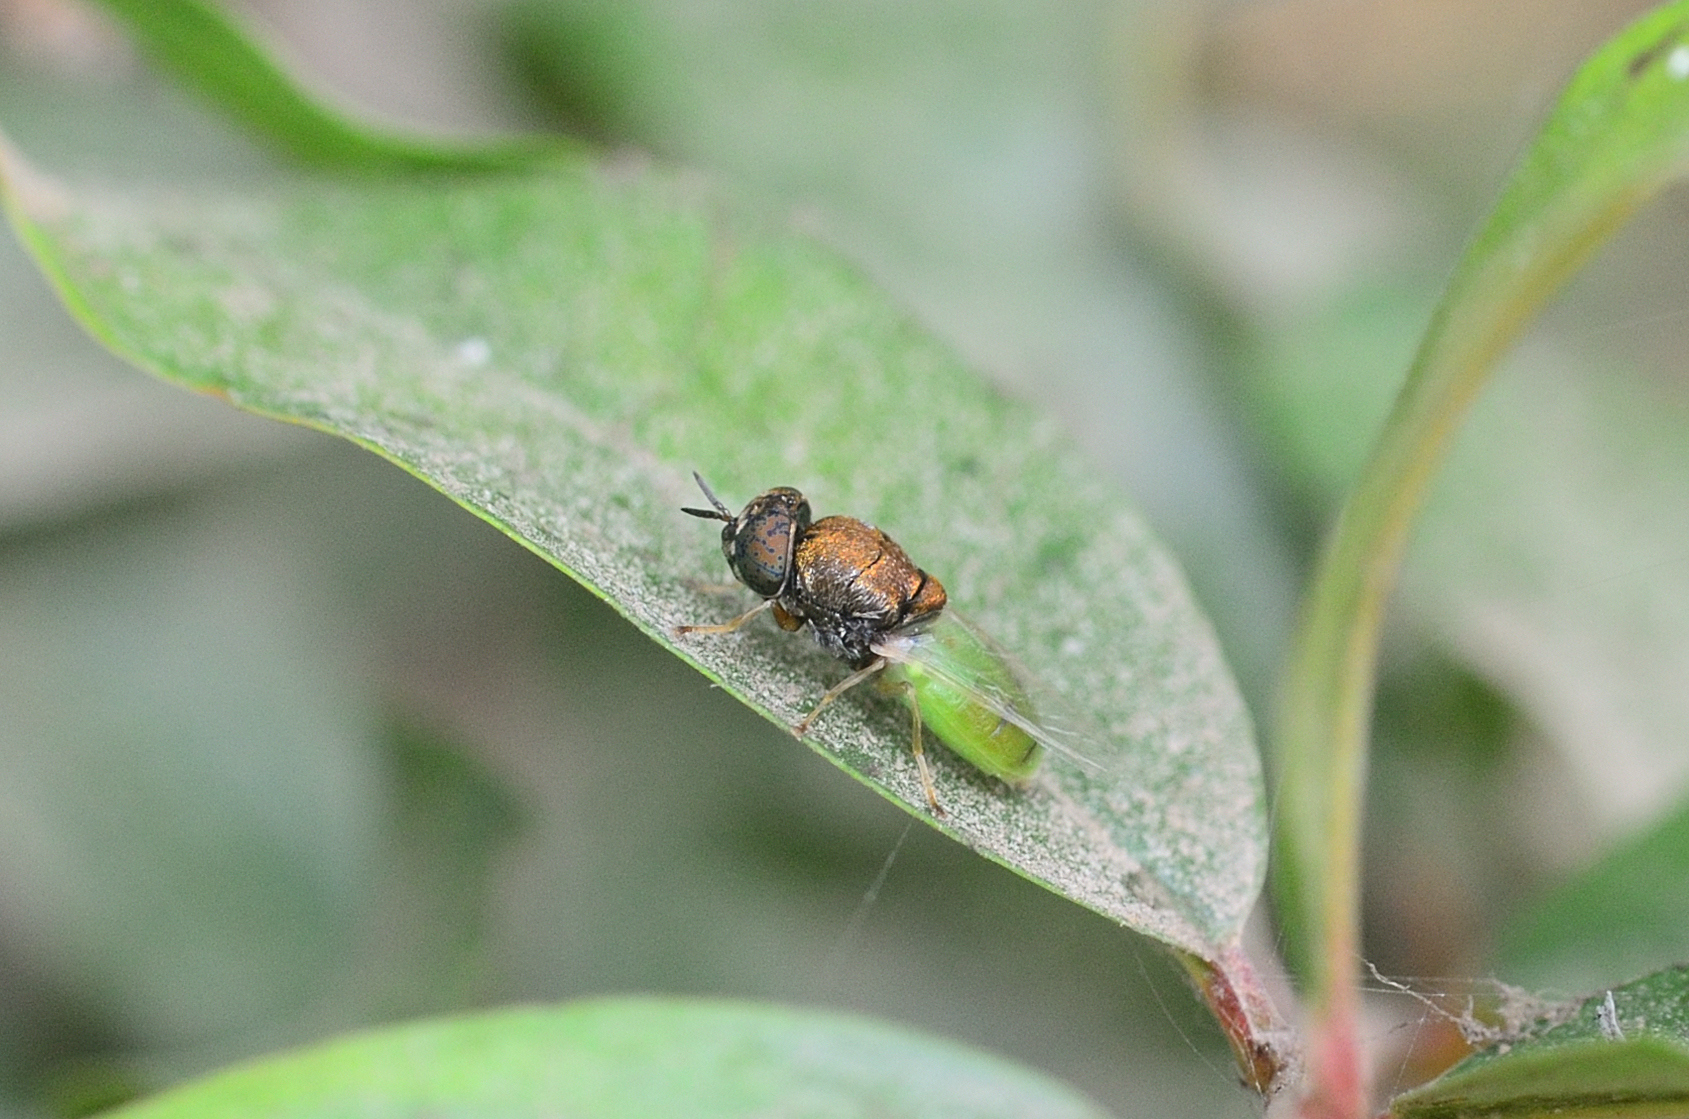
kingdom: Animalia
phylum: Arthropoda
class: Insecta
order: Diptera
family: Stratiomyidae
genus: Oplodontha
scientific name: Oplodontha rubrithorax
